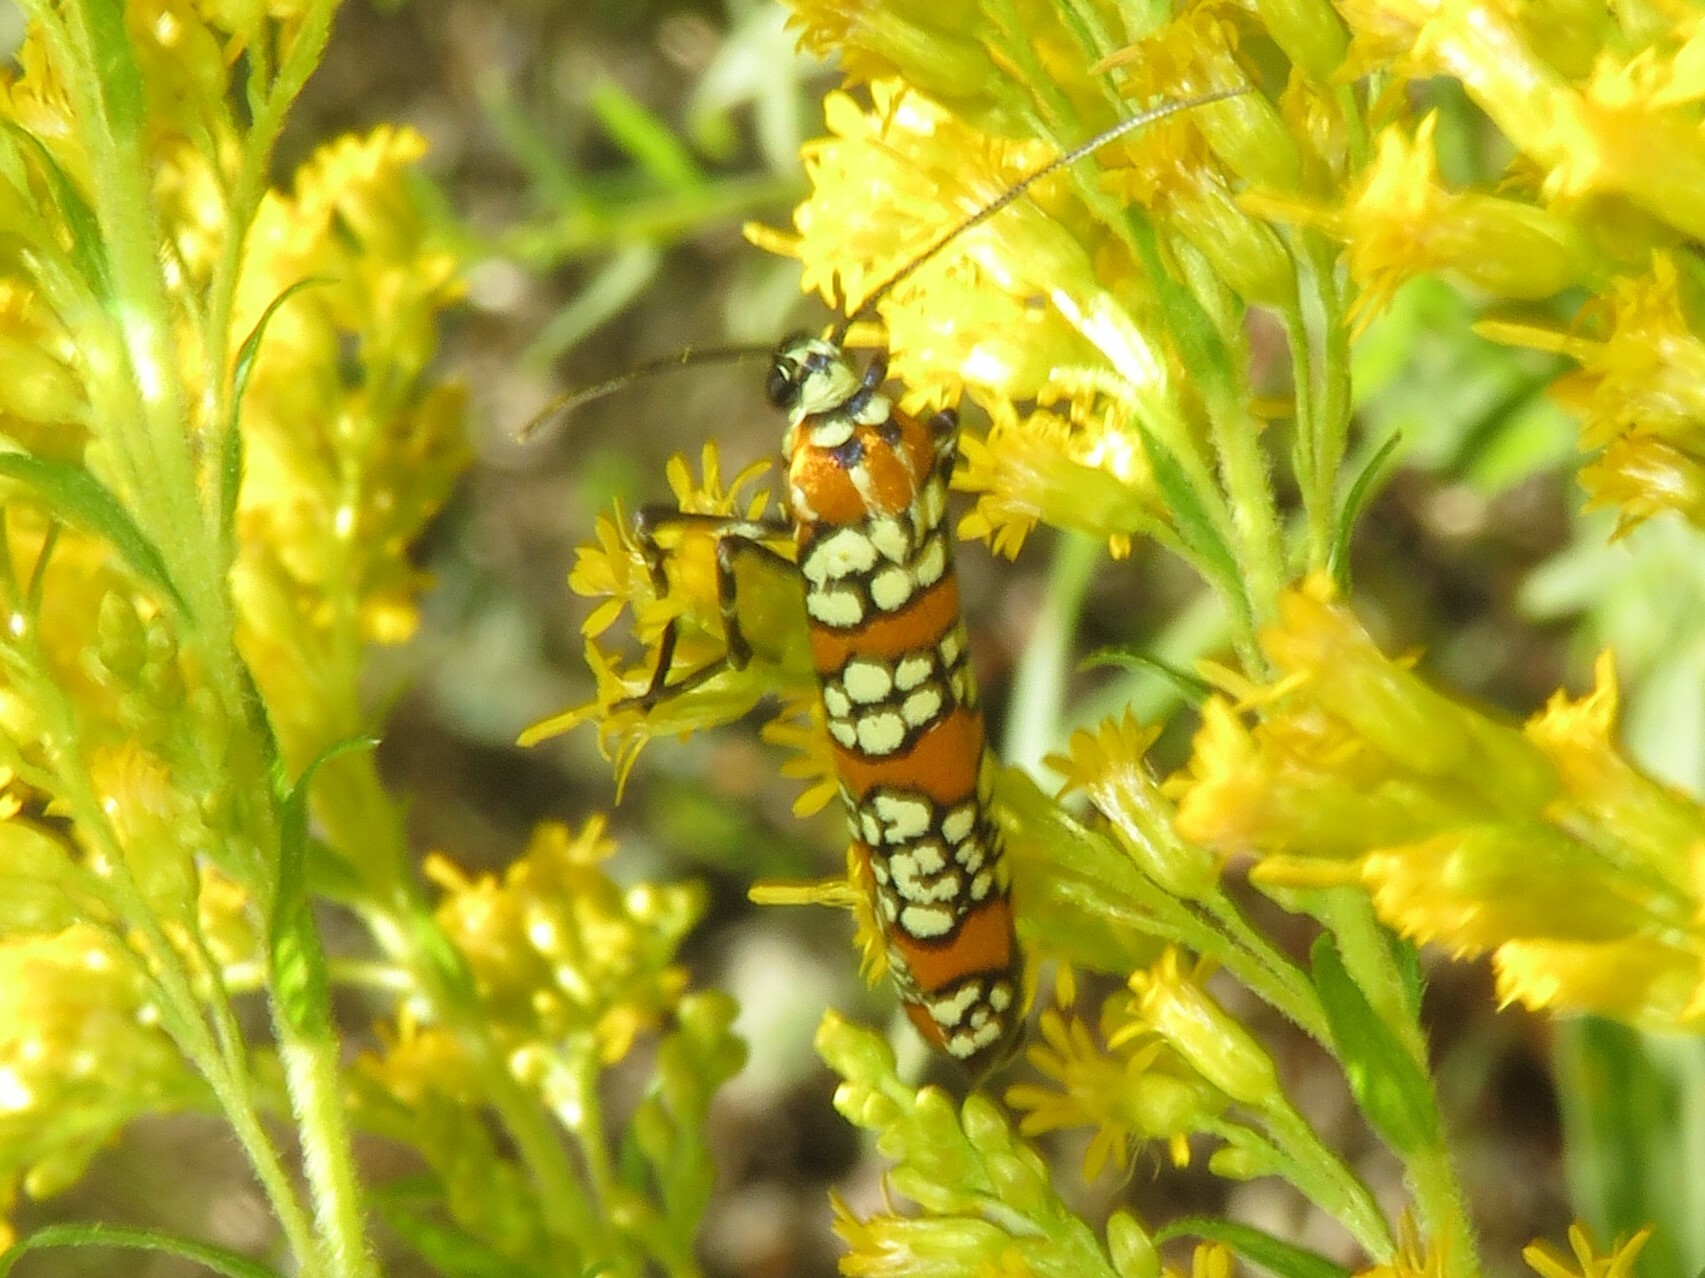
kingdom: Animalia
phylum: Arthropoda
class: Insecta
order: Lepidoptera
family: Attevidae
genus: Atteva
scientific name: Atteva punctella
